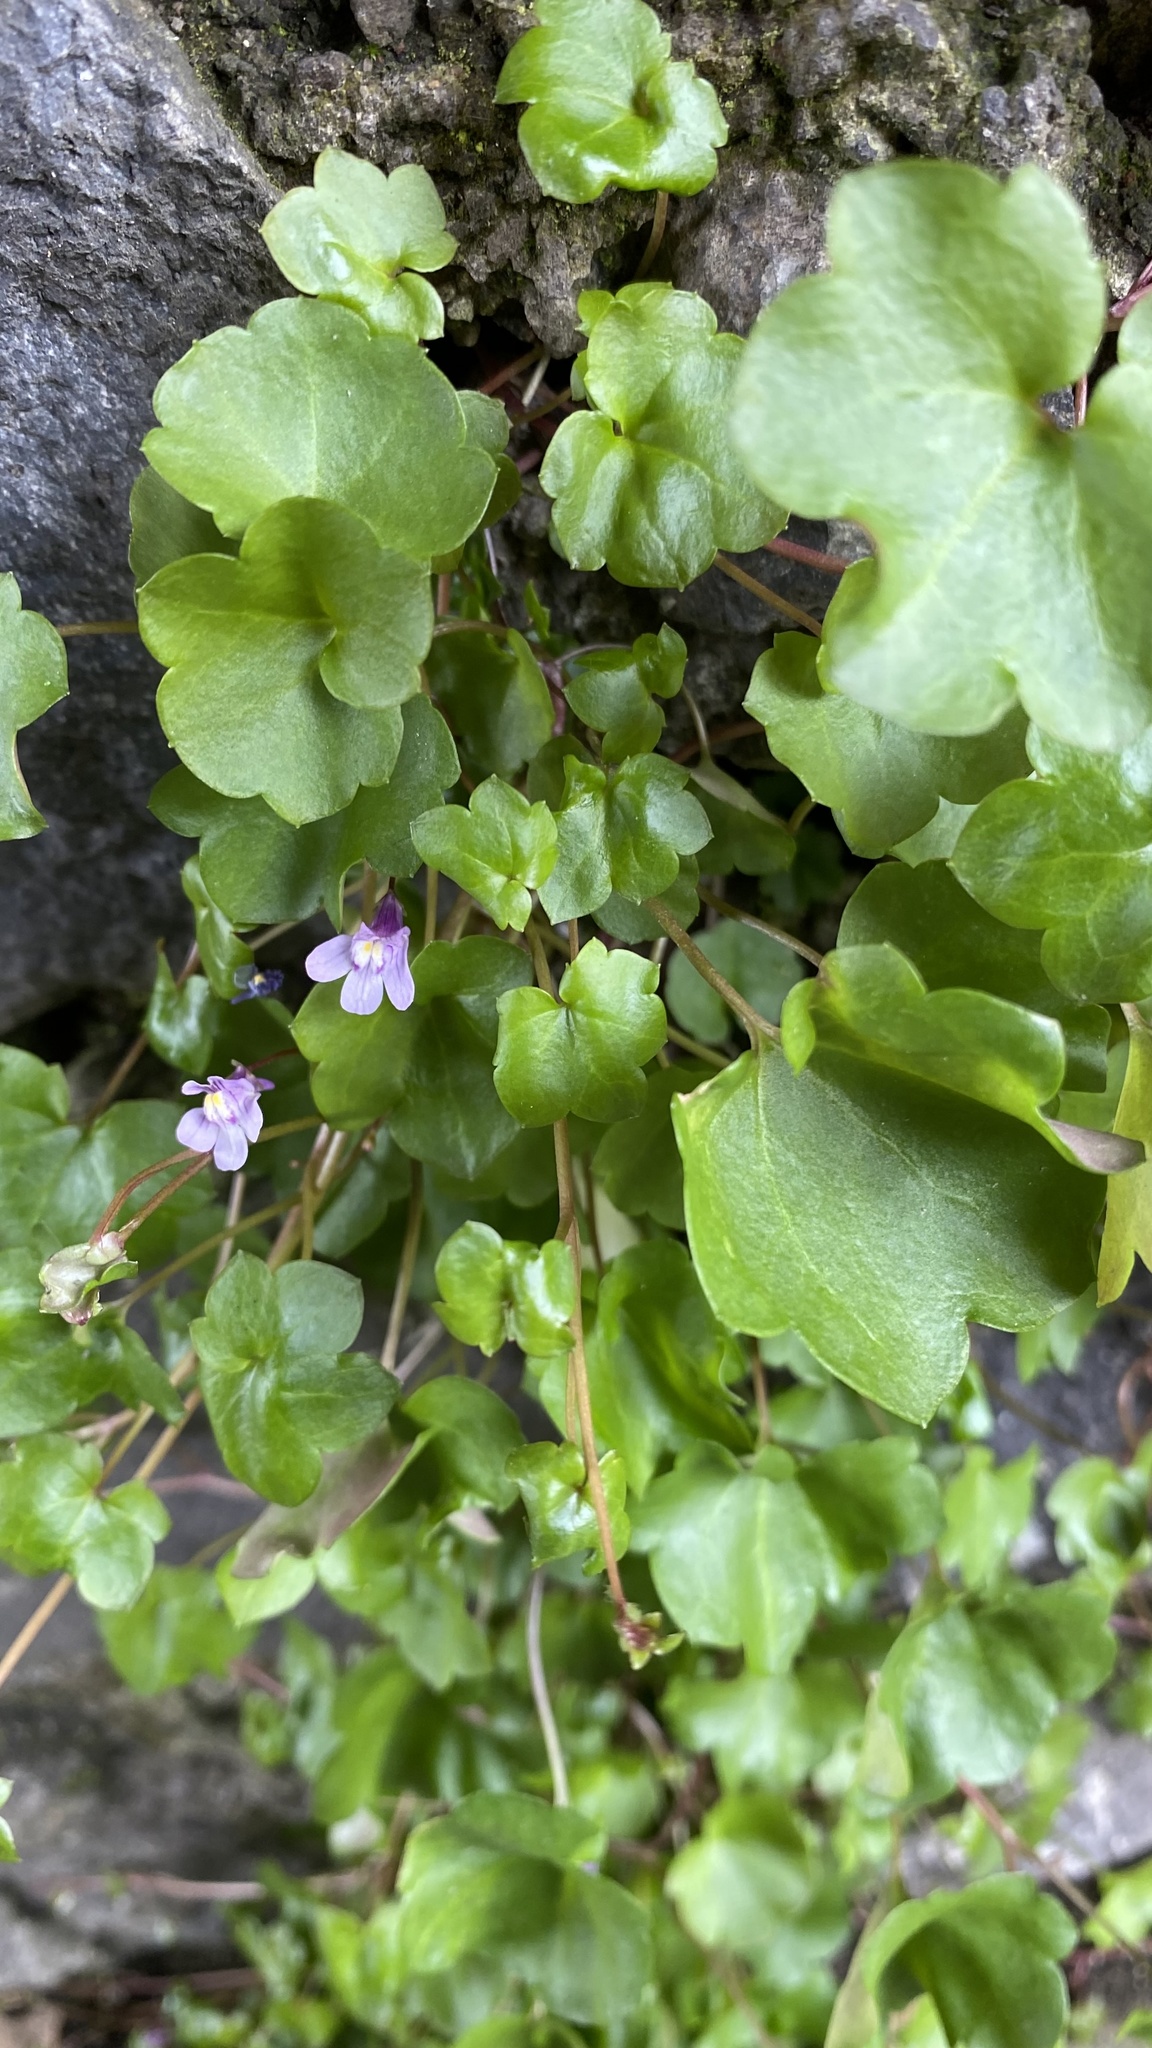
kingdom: Plantae
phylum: Tracheophyta
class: Magnoliopsida
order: Lamiales
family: Plantaginaceae
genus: Cymbalaria
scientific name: Cymbalaria muralis
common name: Ivy-leaved toadflax
